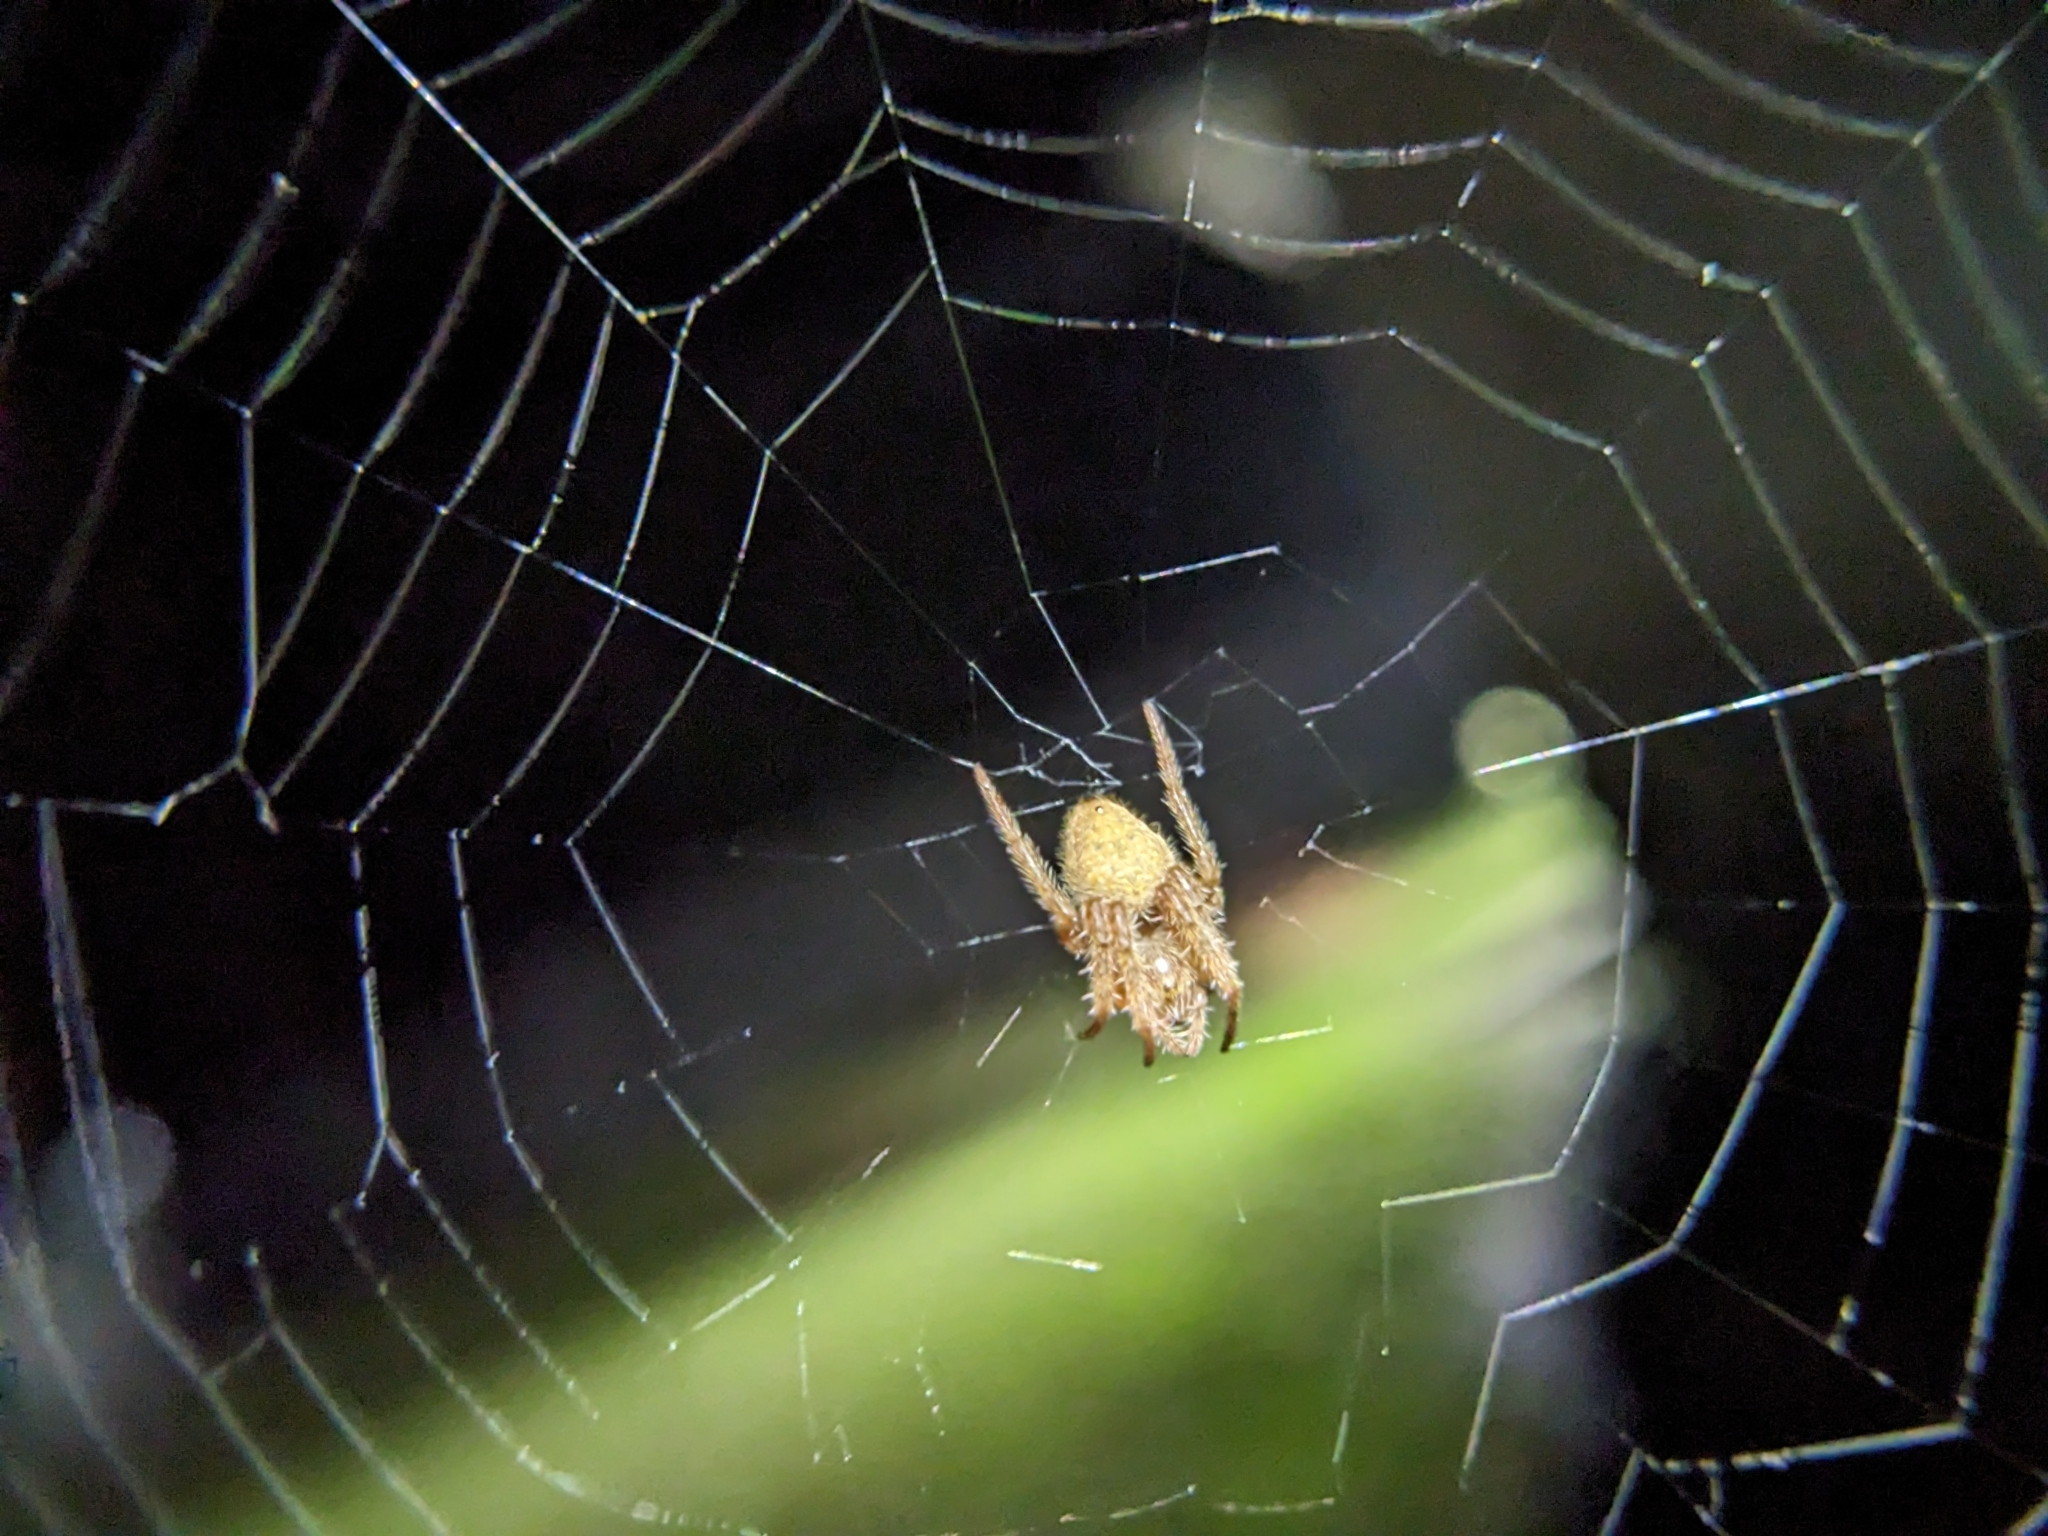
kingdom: Animalia
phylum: Arthropoda
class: Arachnida
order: Araneae
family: Araneidae
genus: Eriophora
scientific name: Eriophora ravilla
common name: Orb weavers
